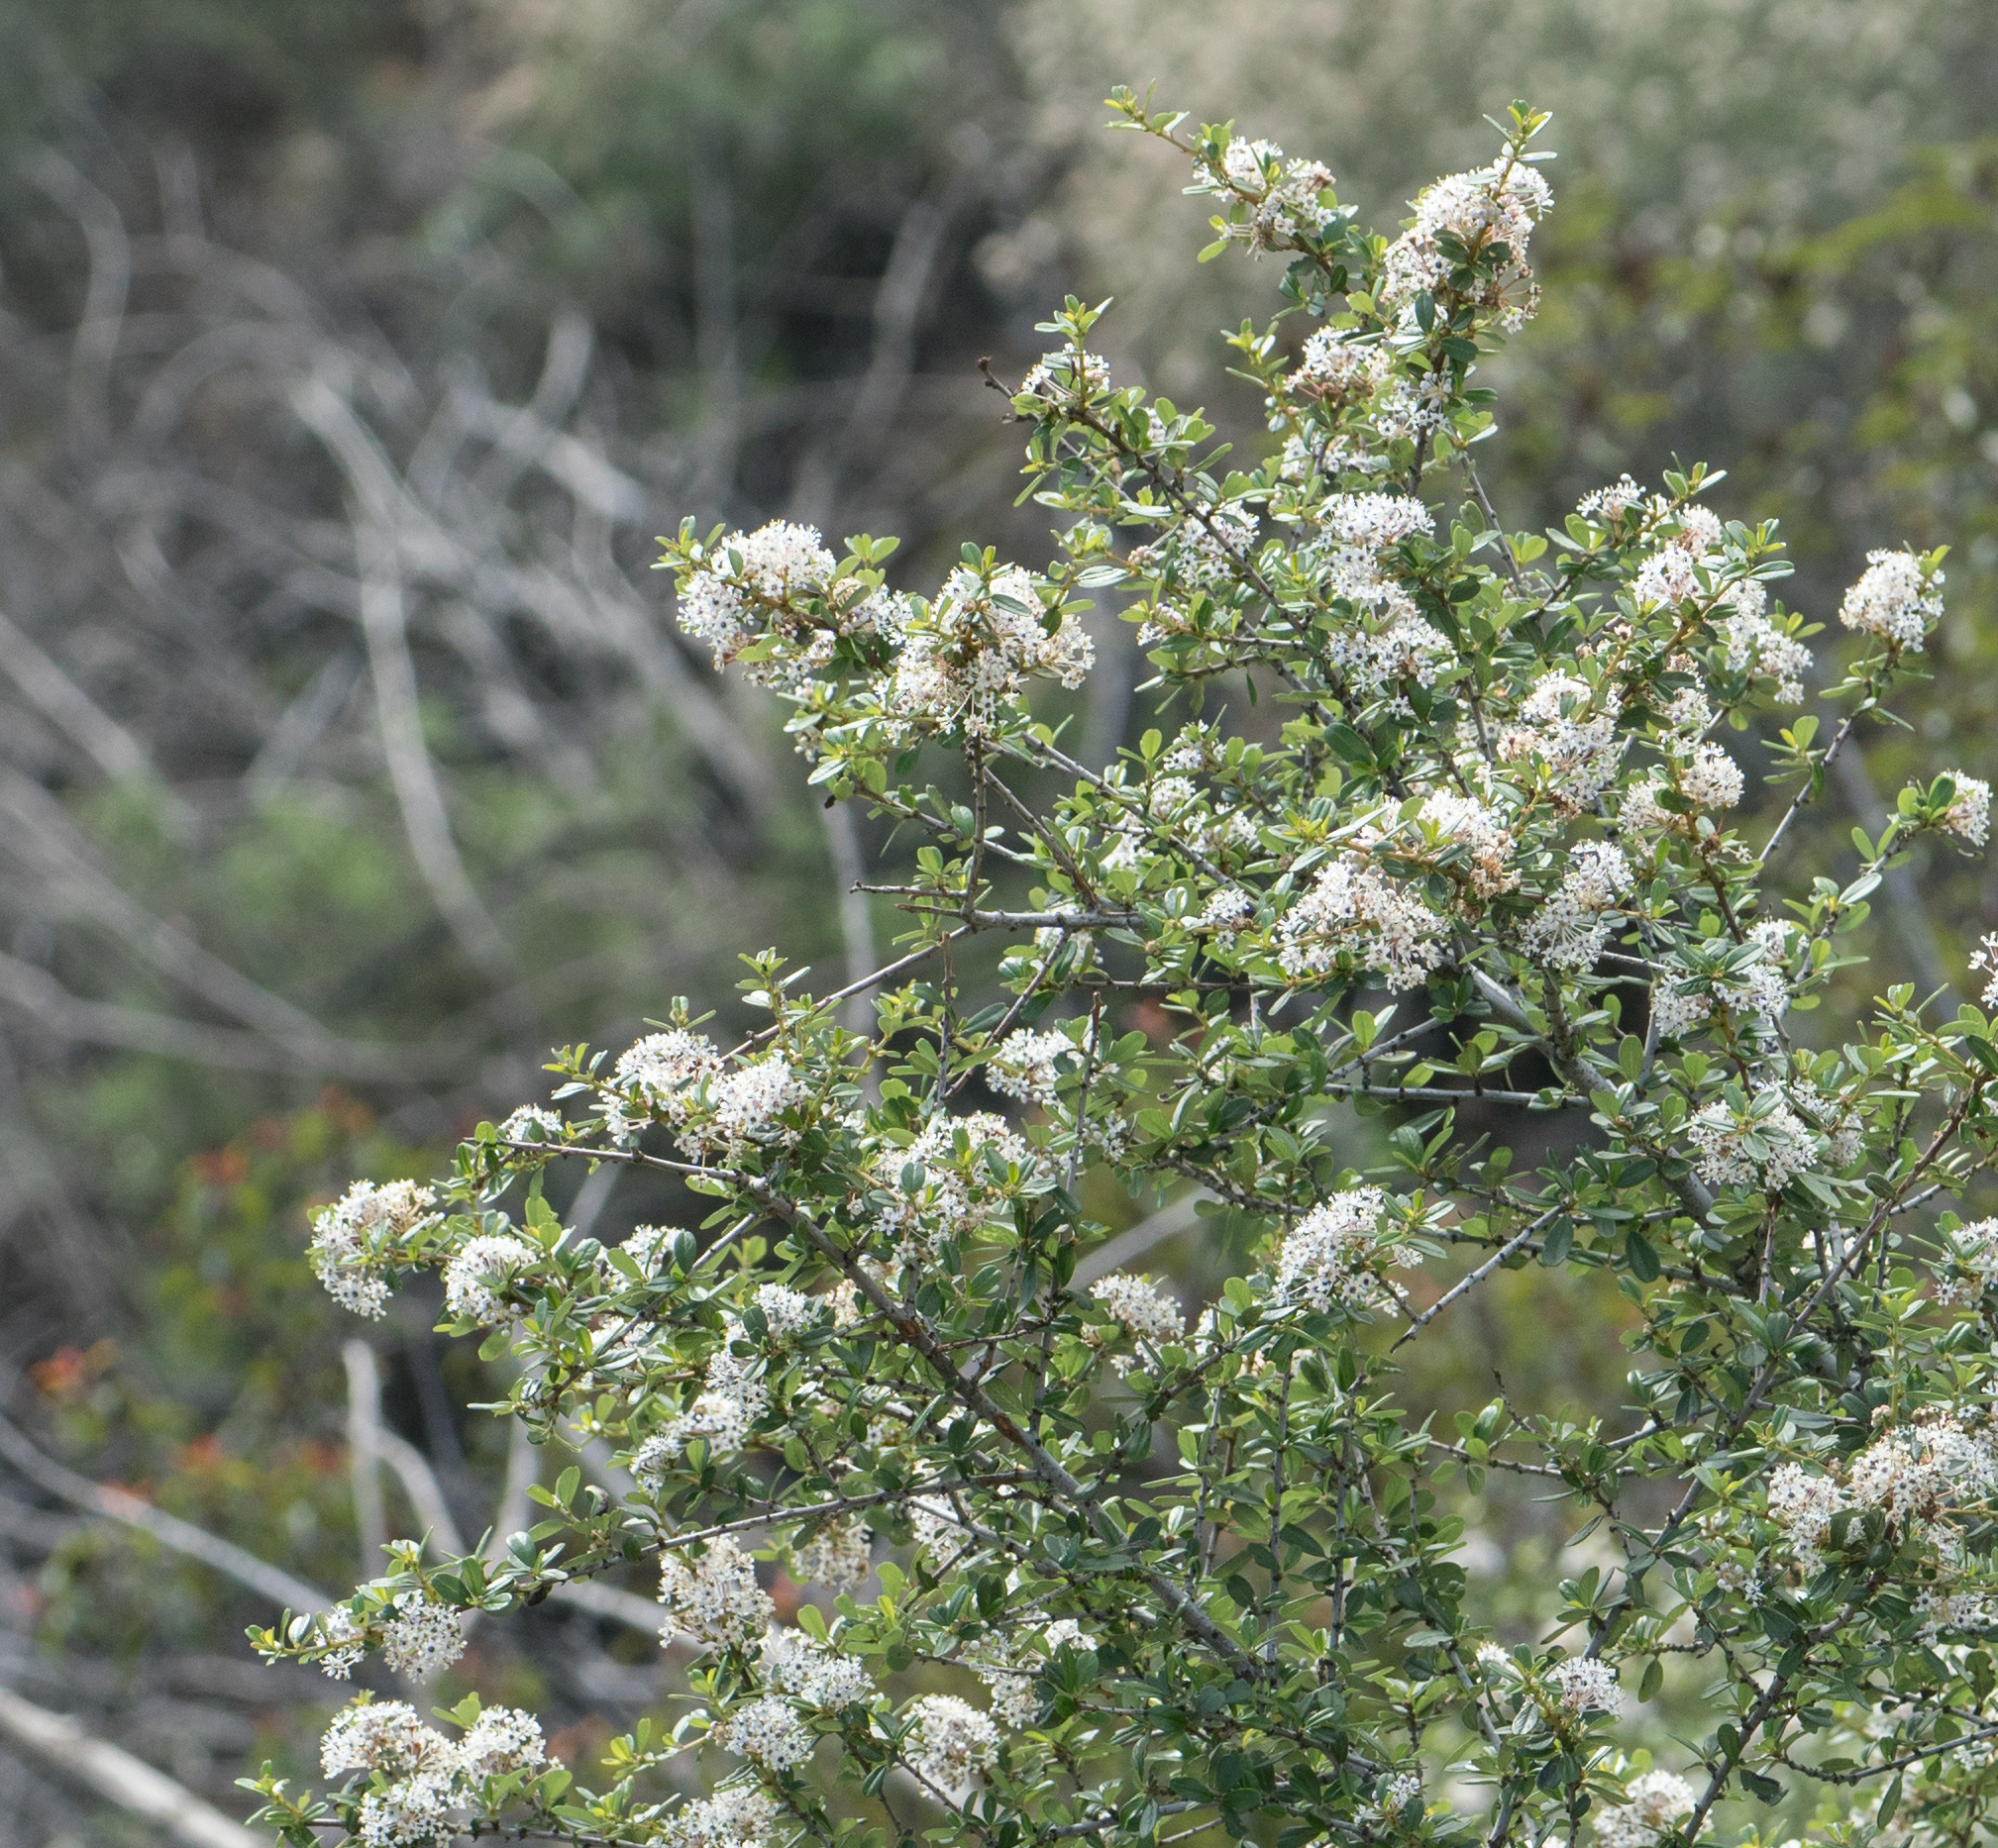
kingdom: Plantae
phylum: Tracheophyta
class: Magnoliopsida
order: Rosales
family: Rhamnaceae
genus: Ceanothus
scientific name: Ceanothus megacarpus
